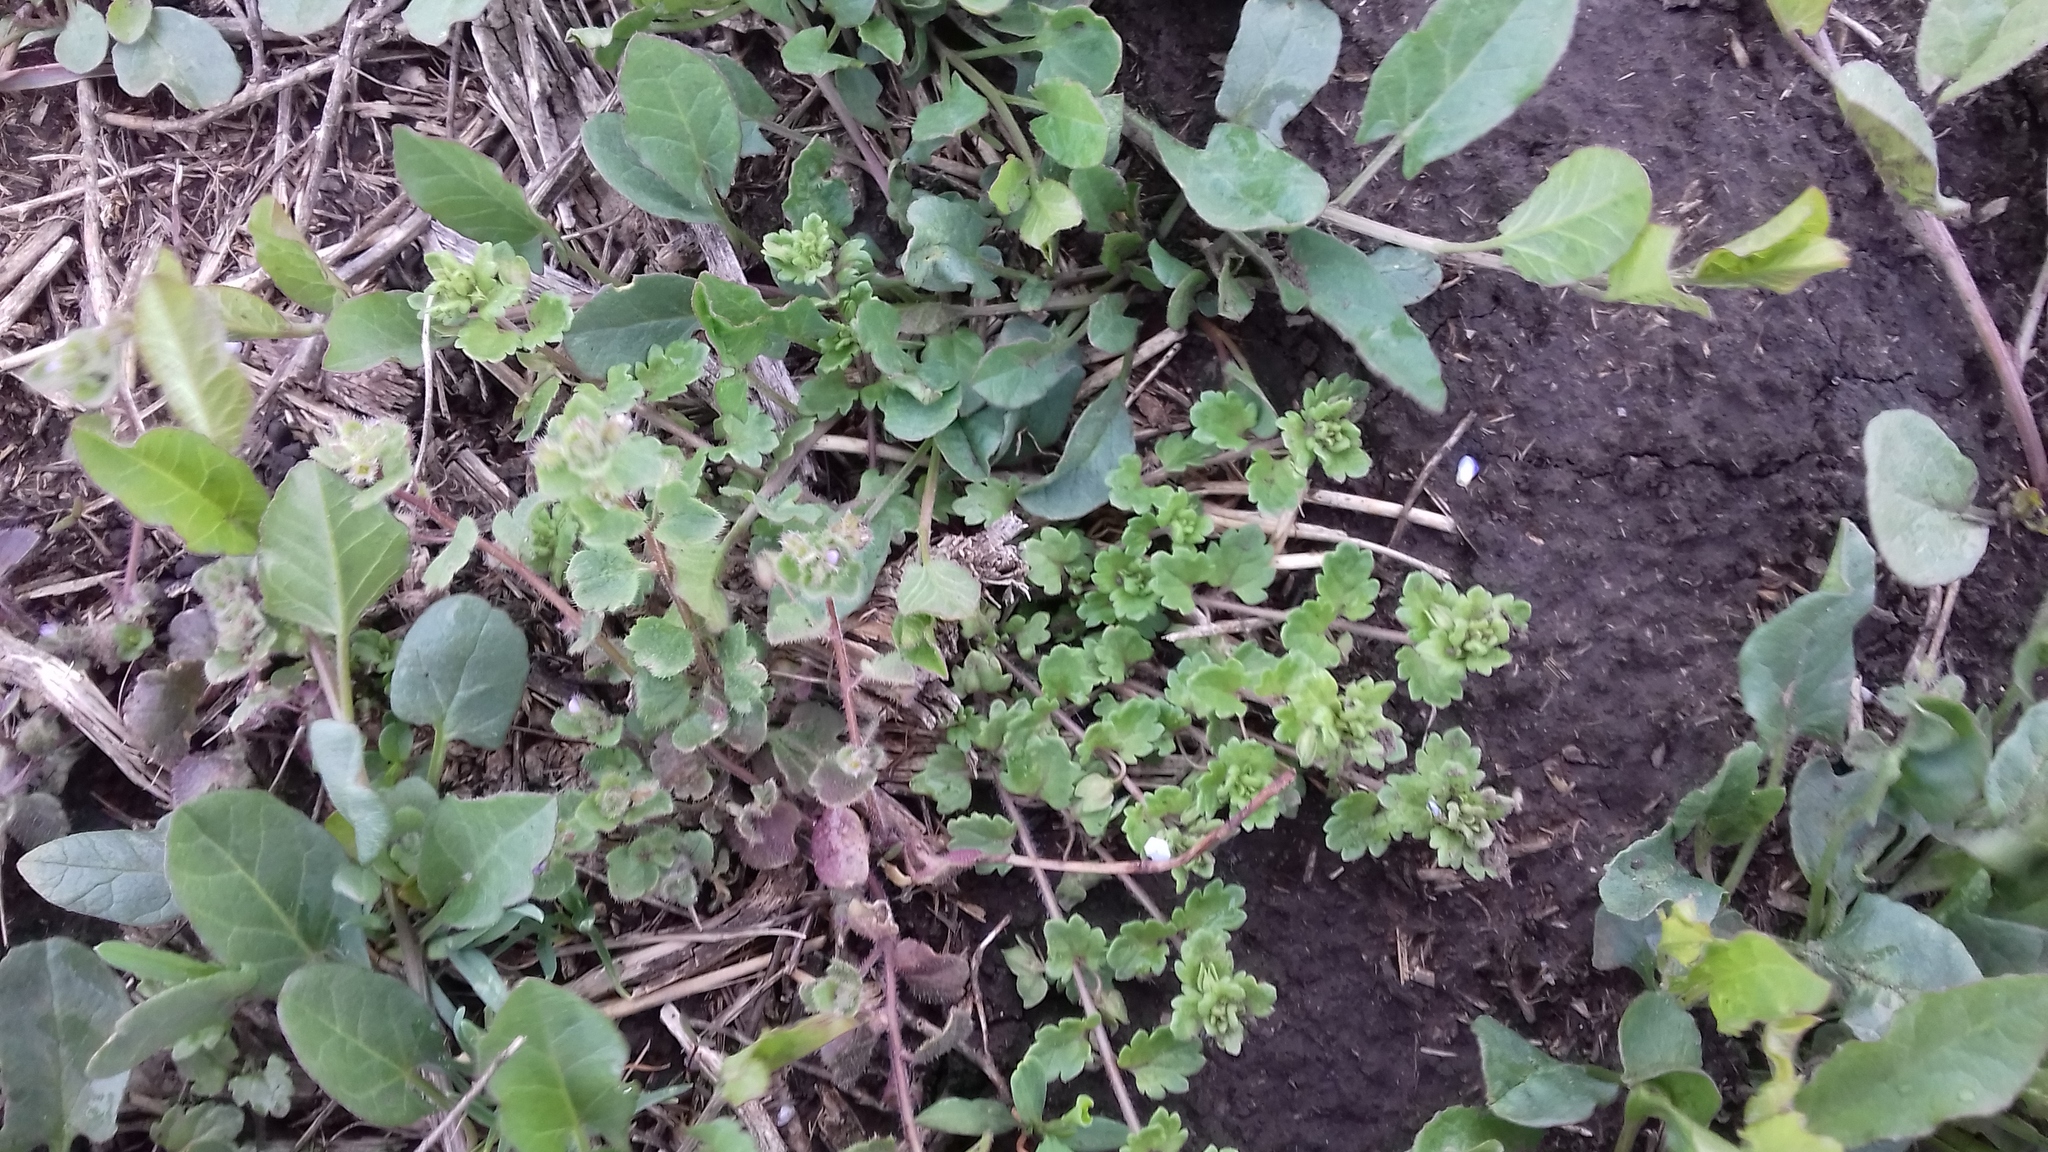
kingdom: Plantae
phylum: Tracheophyta
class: Magnoliopsida
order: Lamiales
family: Plantaginaceae
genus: Veronica
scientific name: Veronica polita
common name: Grey field-speedwell
